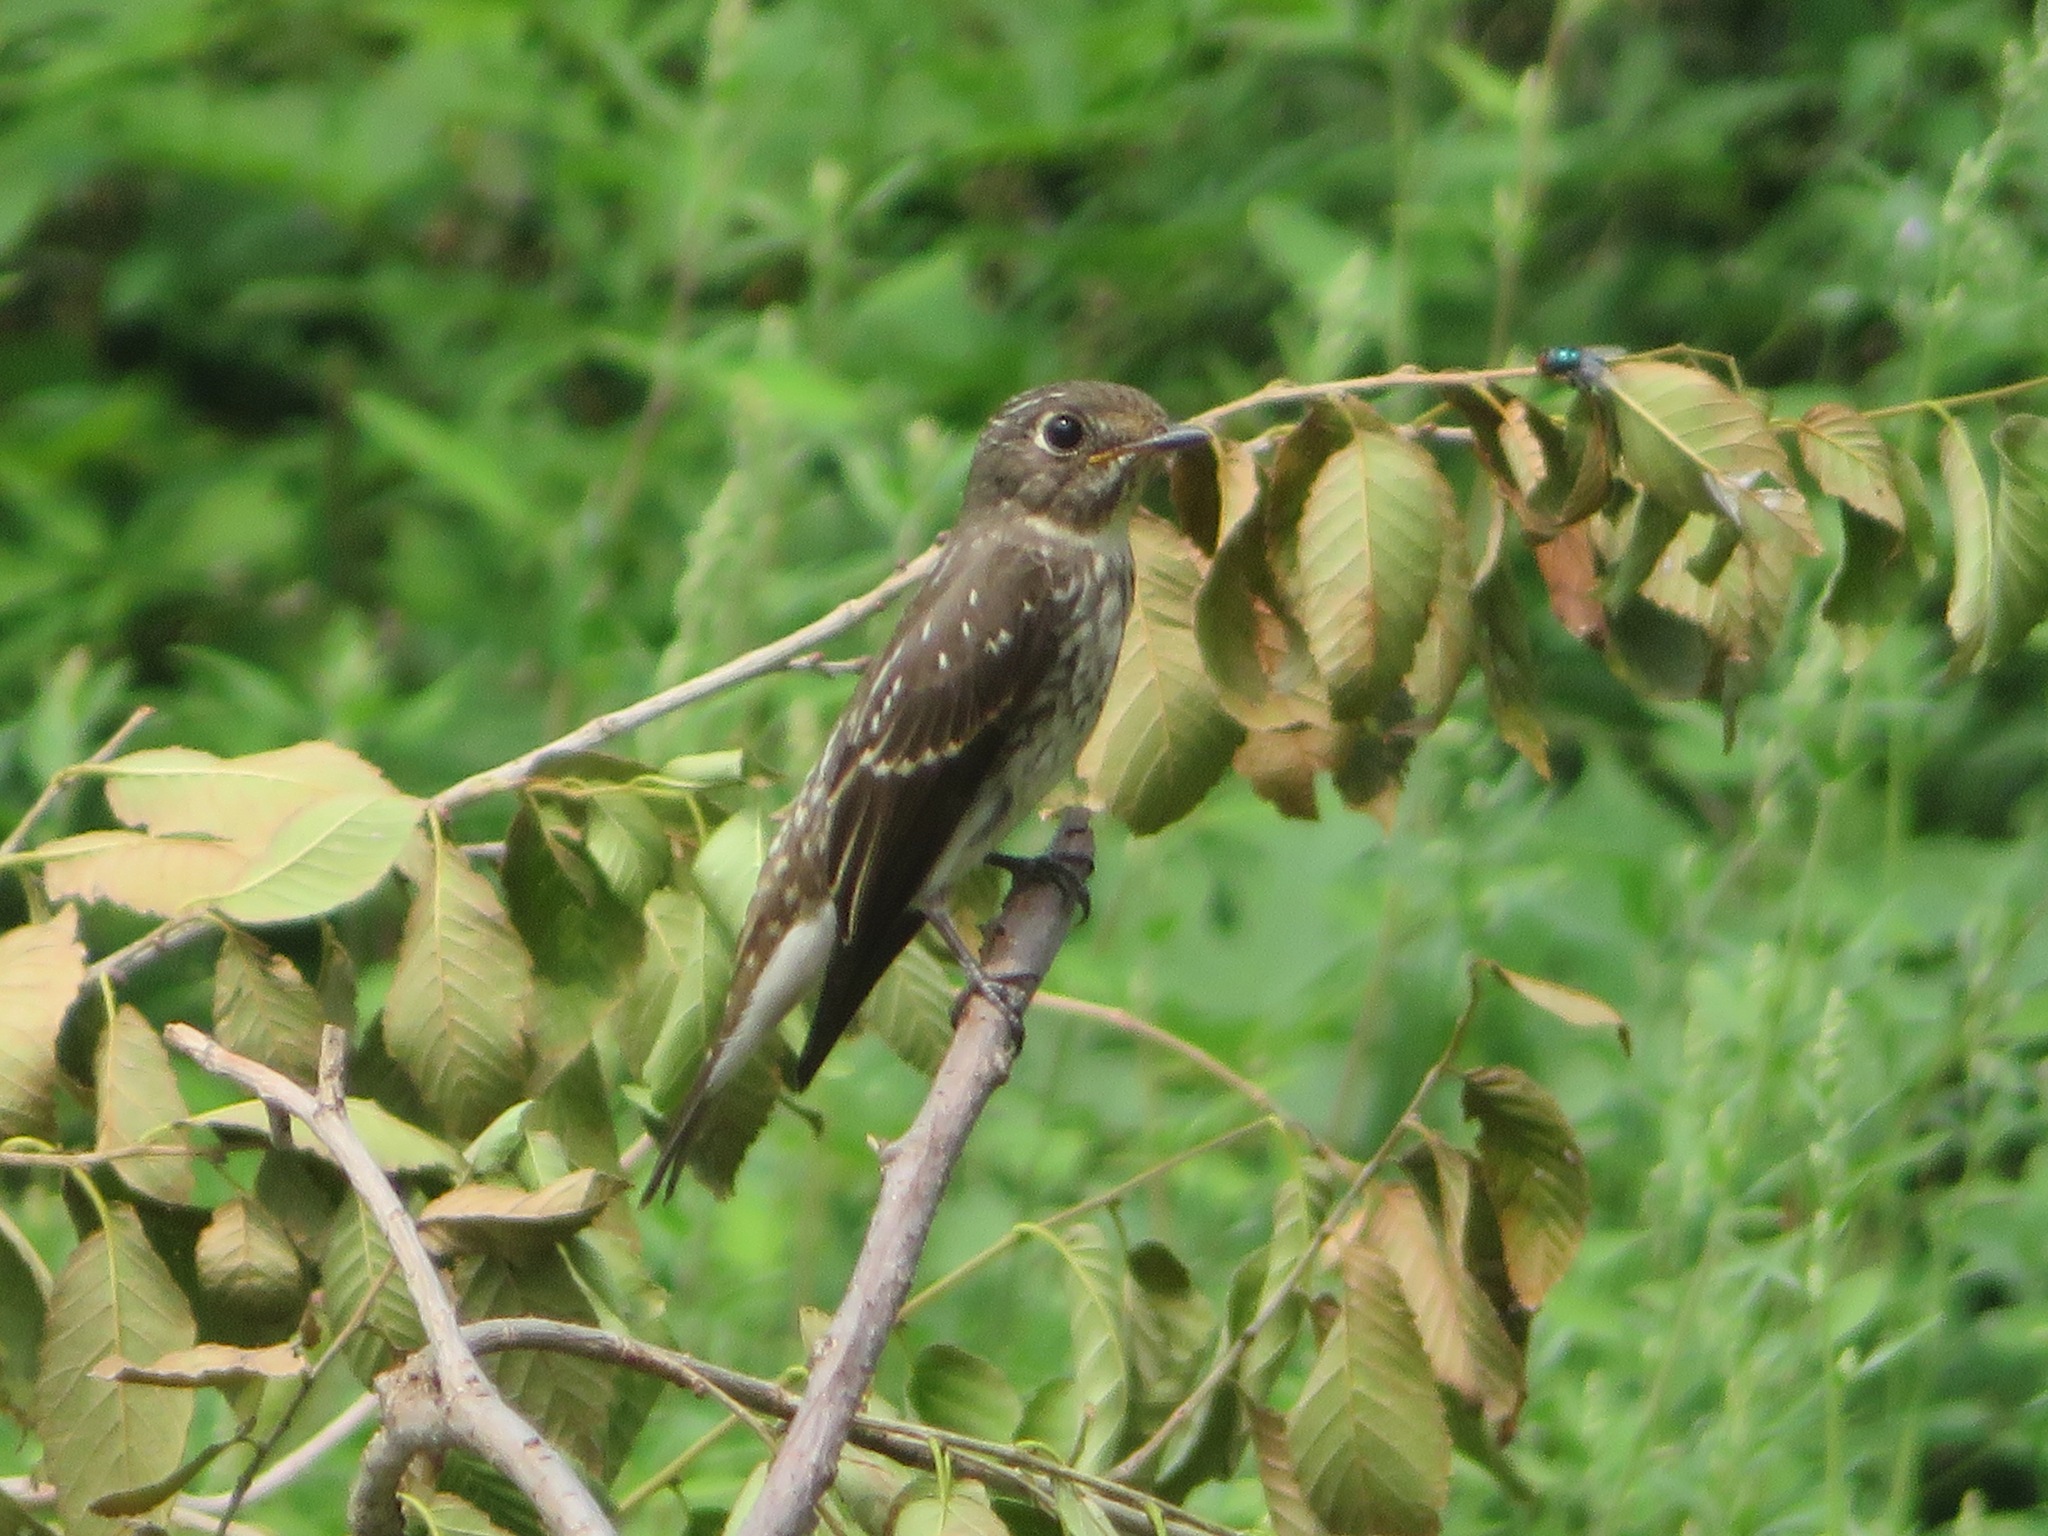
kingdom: Animalia
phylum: Chordata
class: Aves
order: Passeriformes
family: Muscicapidae
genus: Muscicapa
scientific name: Muscicapa sibirica
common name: Dark-sided flycatcher
